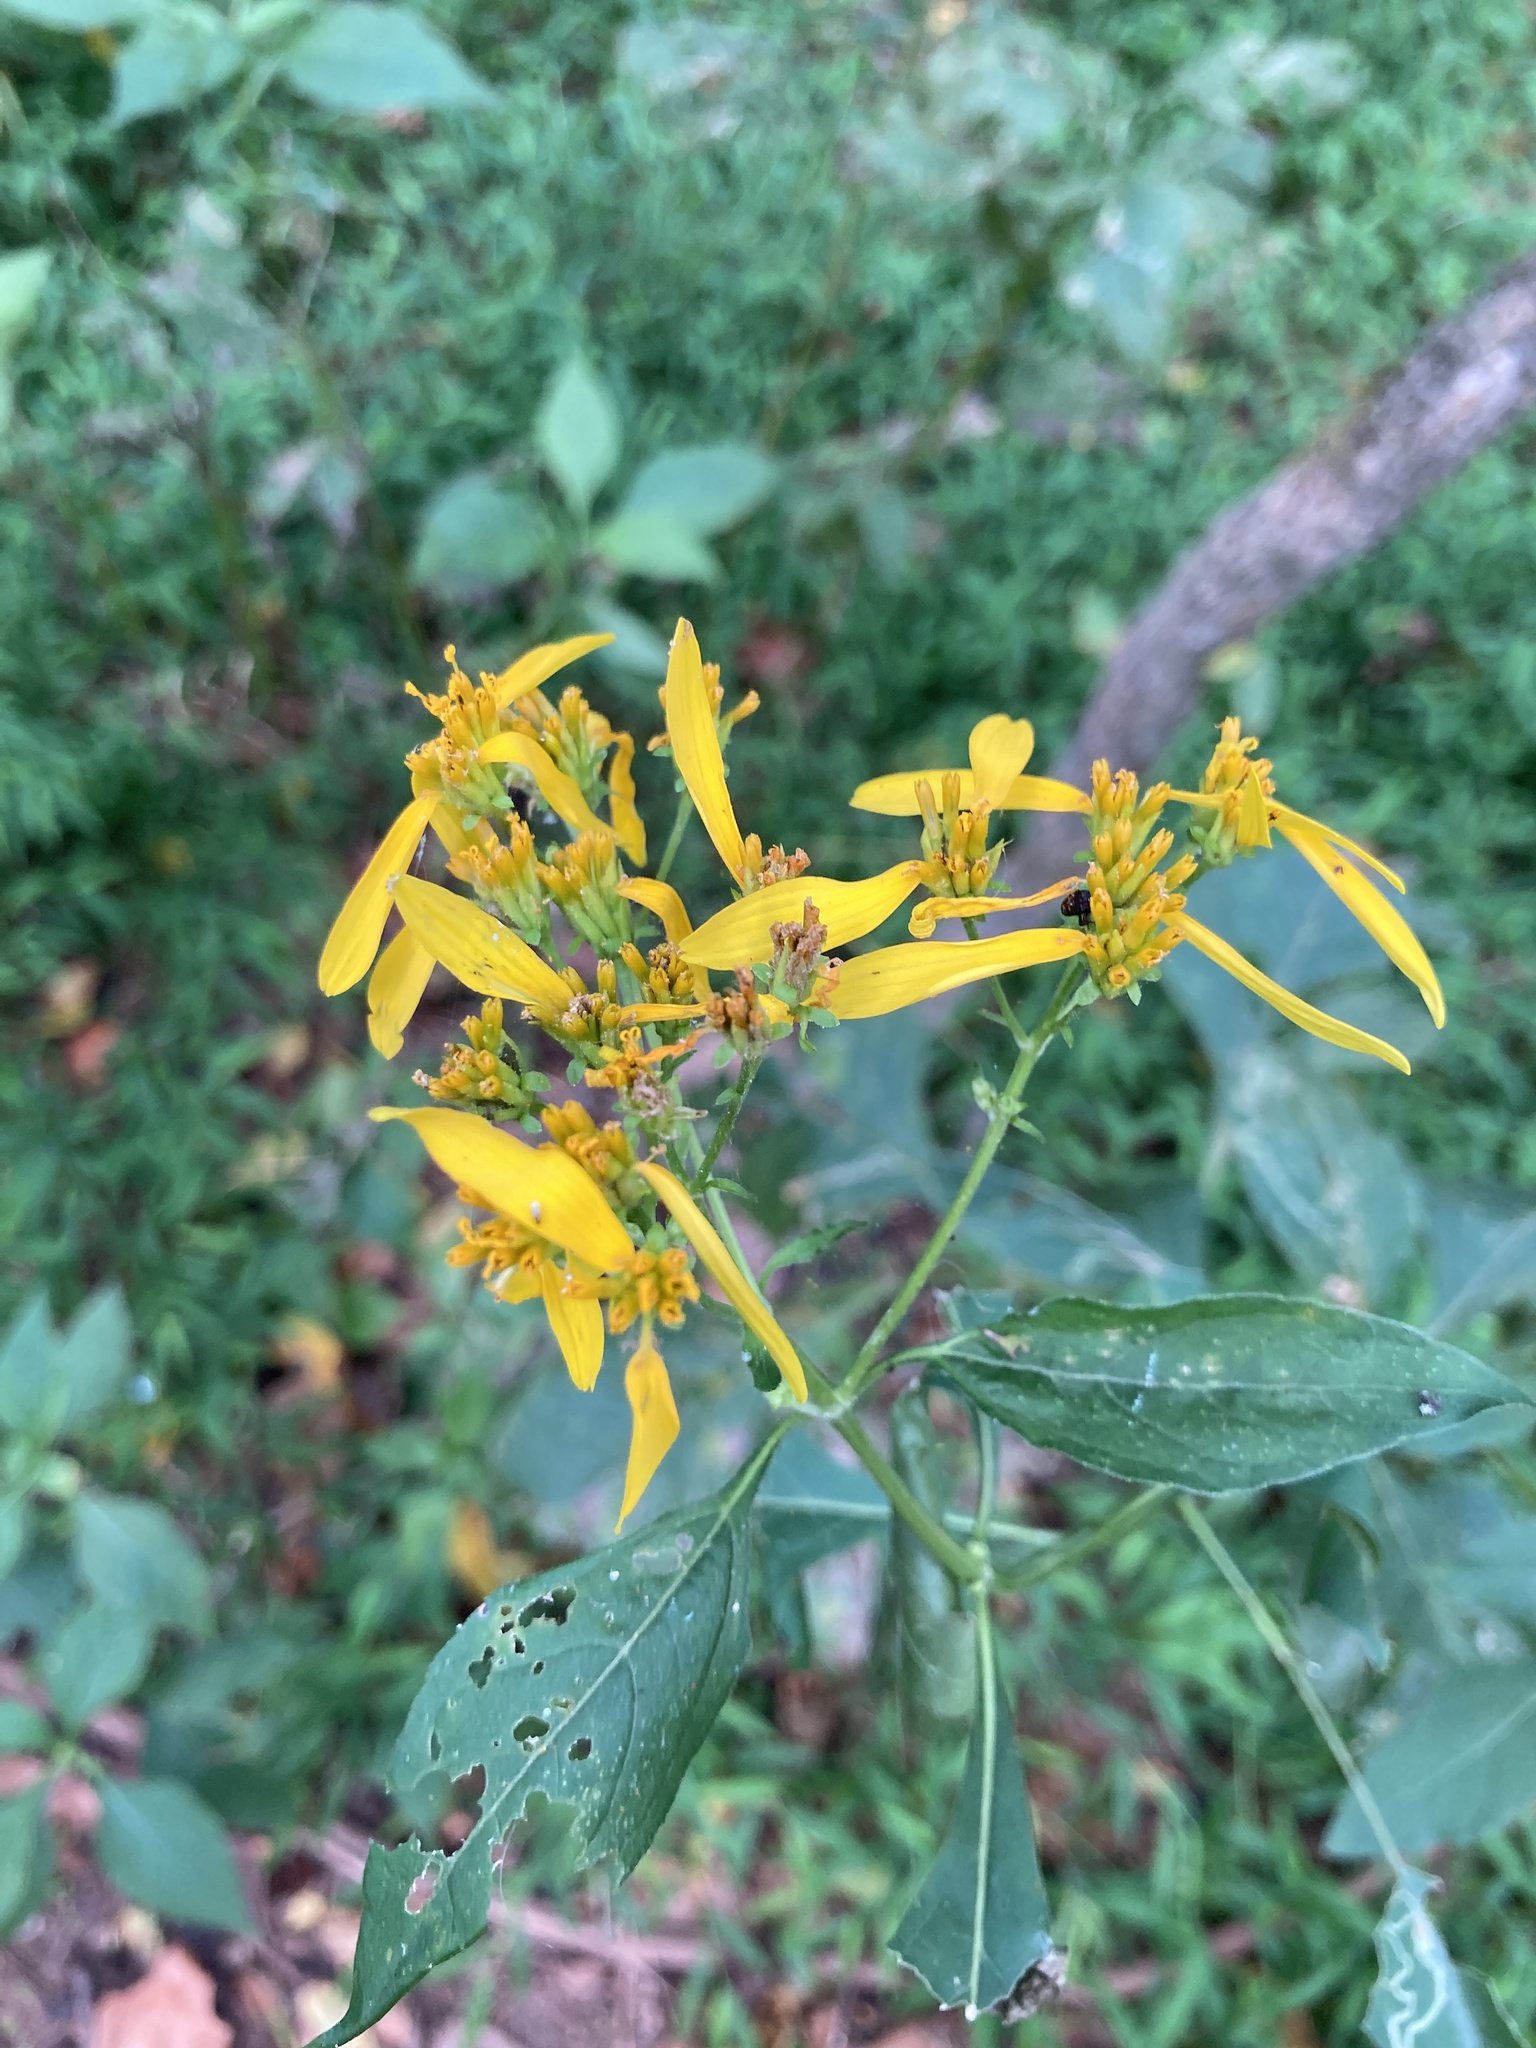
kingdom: Plantae
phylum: Tracheophyta
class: Magnoliopsida
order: Asterales
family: Asteraceae
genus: Verbesina
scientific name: Verbesina occidentalis
